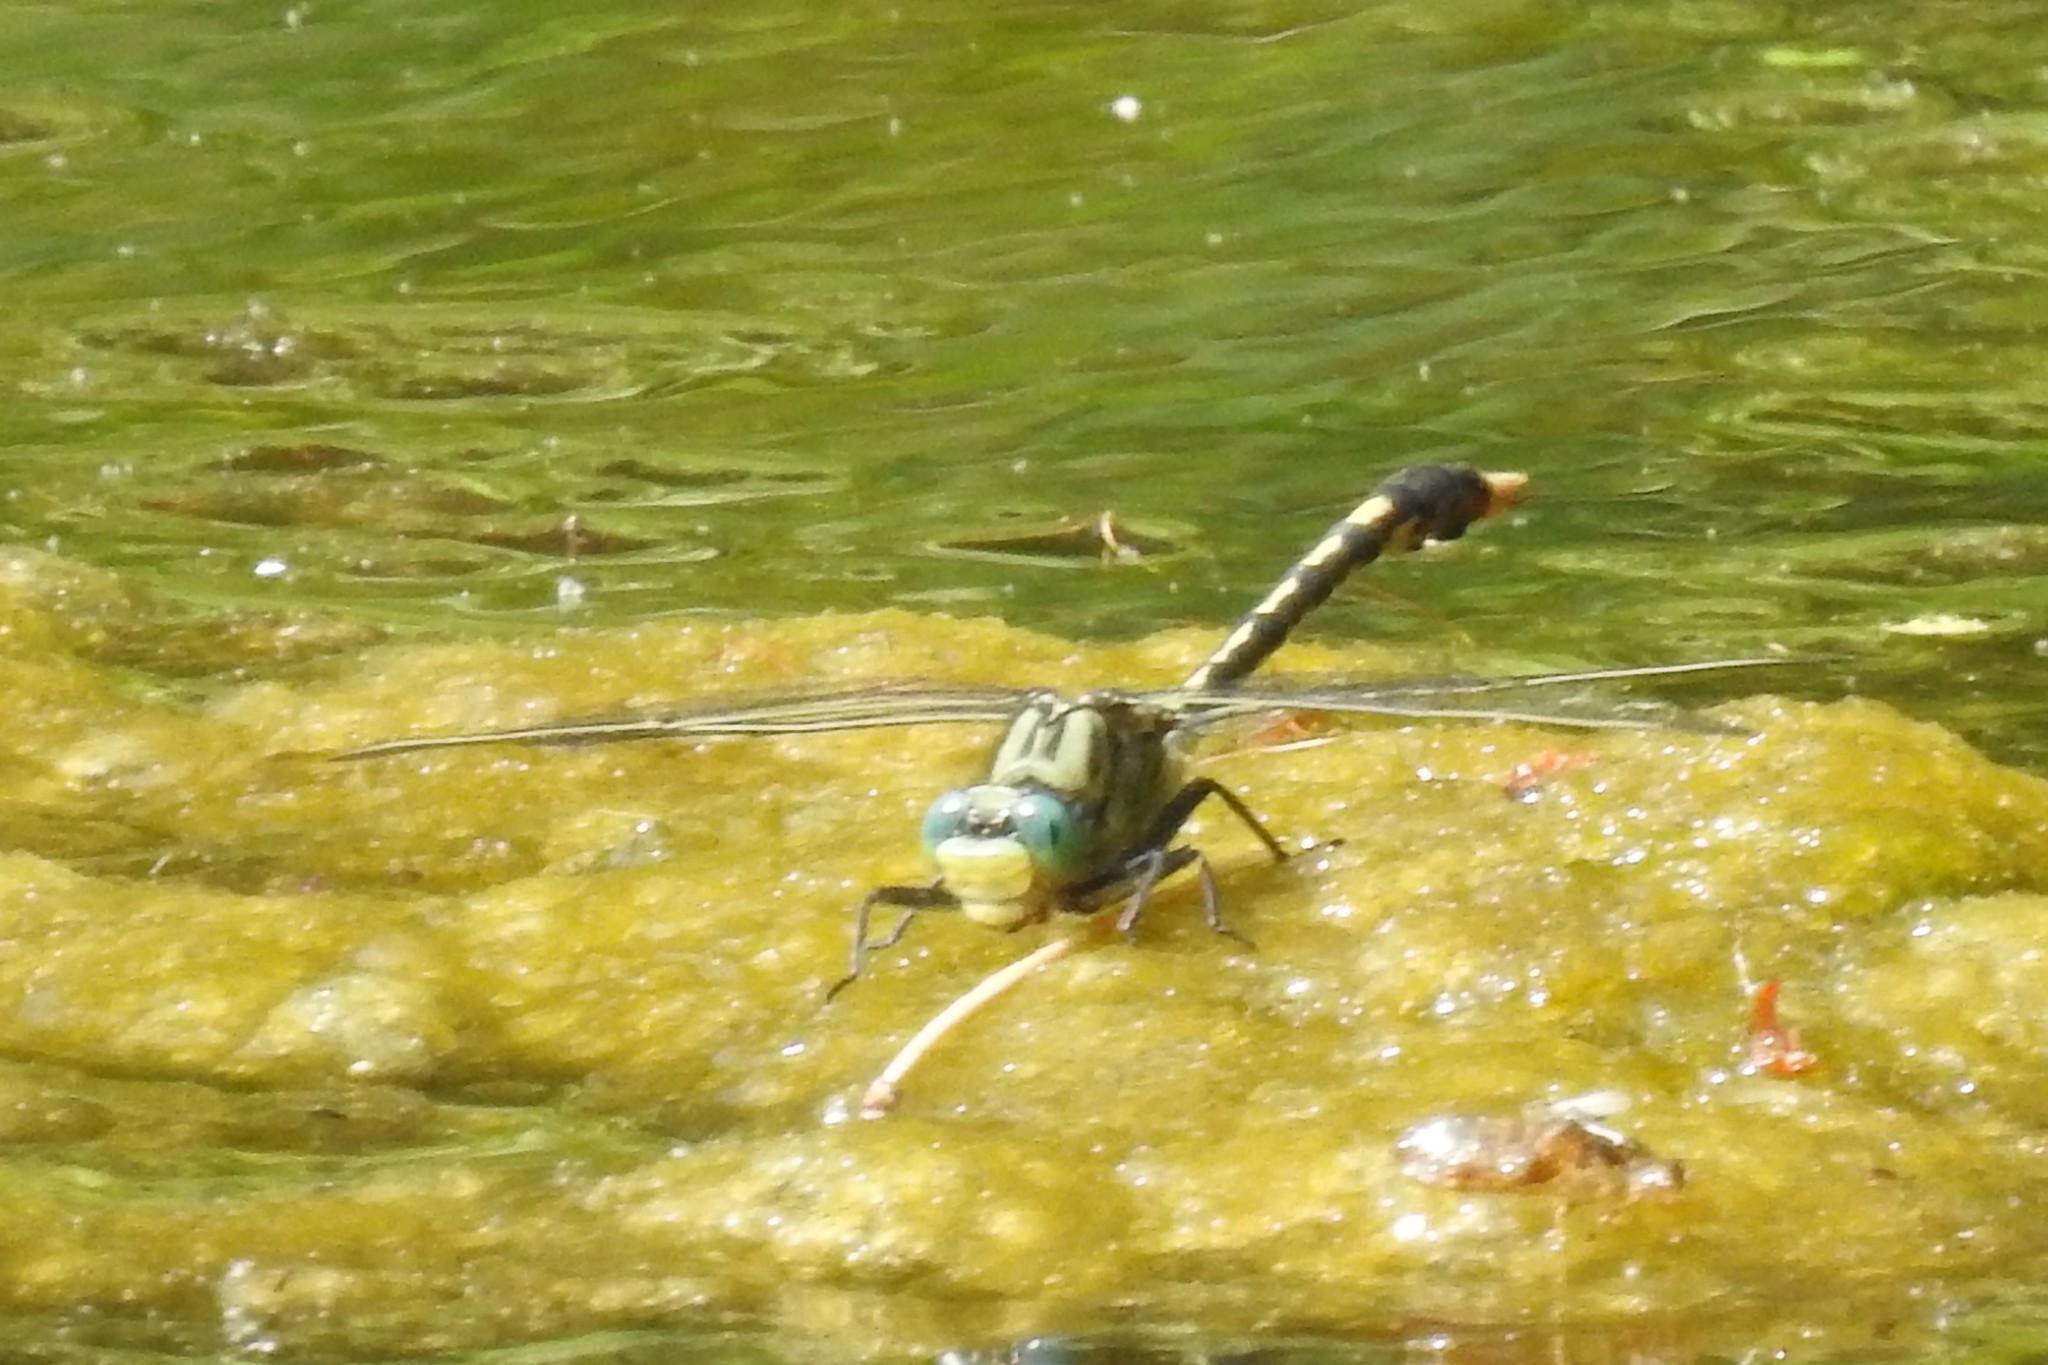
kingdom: Animalia
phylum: Arthropoda
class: Insecta
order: Odonata
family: Gomphidae
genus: Arigomphus
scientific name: Arigomphus villosipes
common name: Unicorn clubtail
